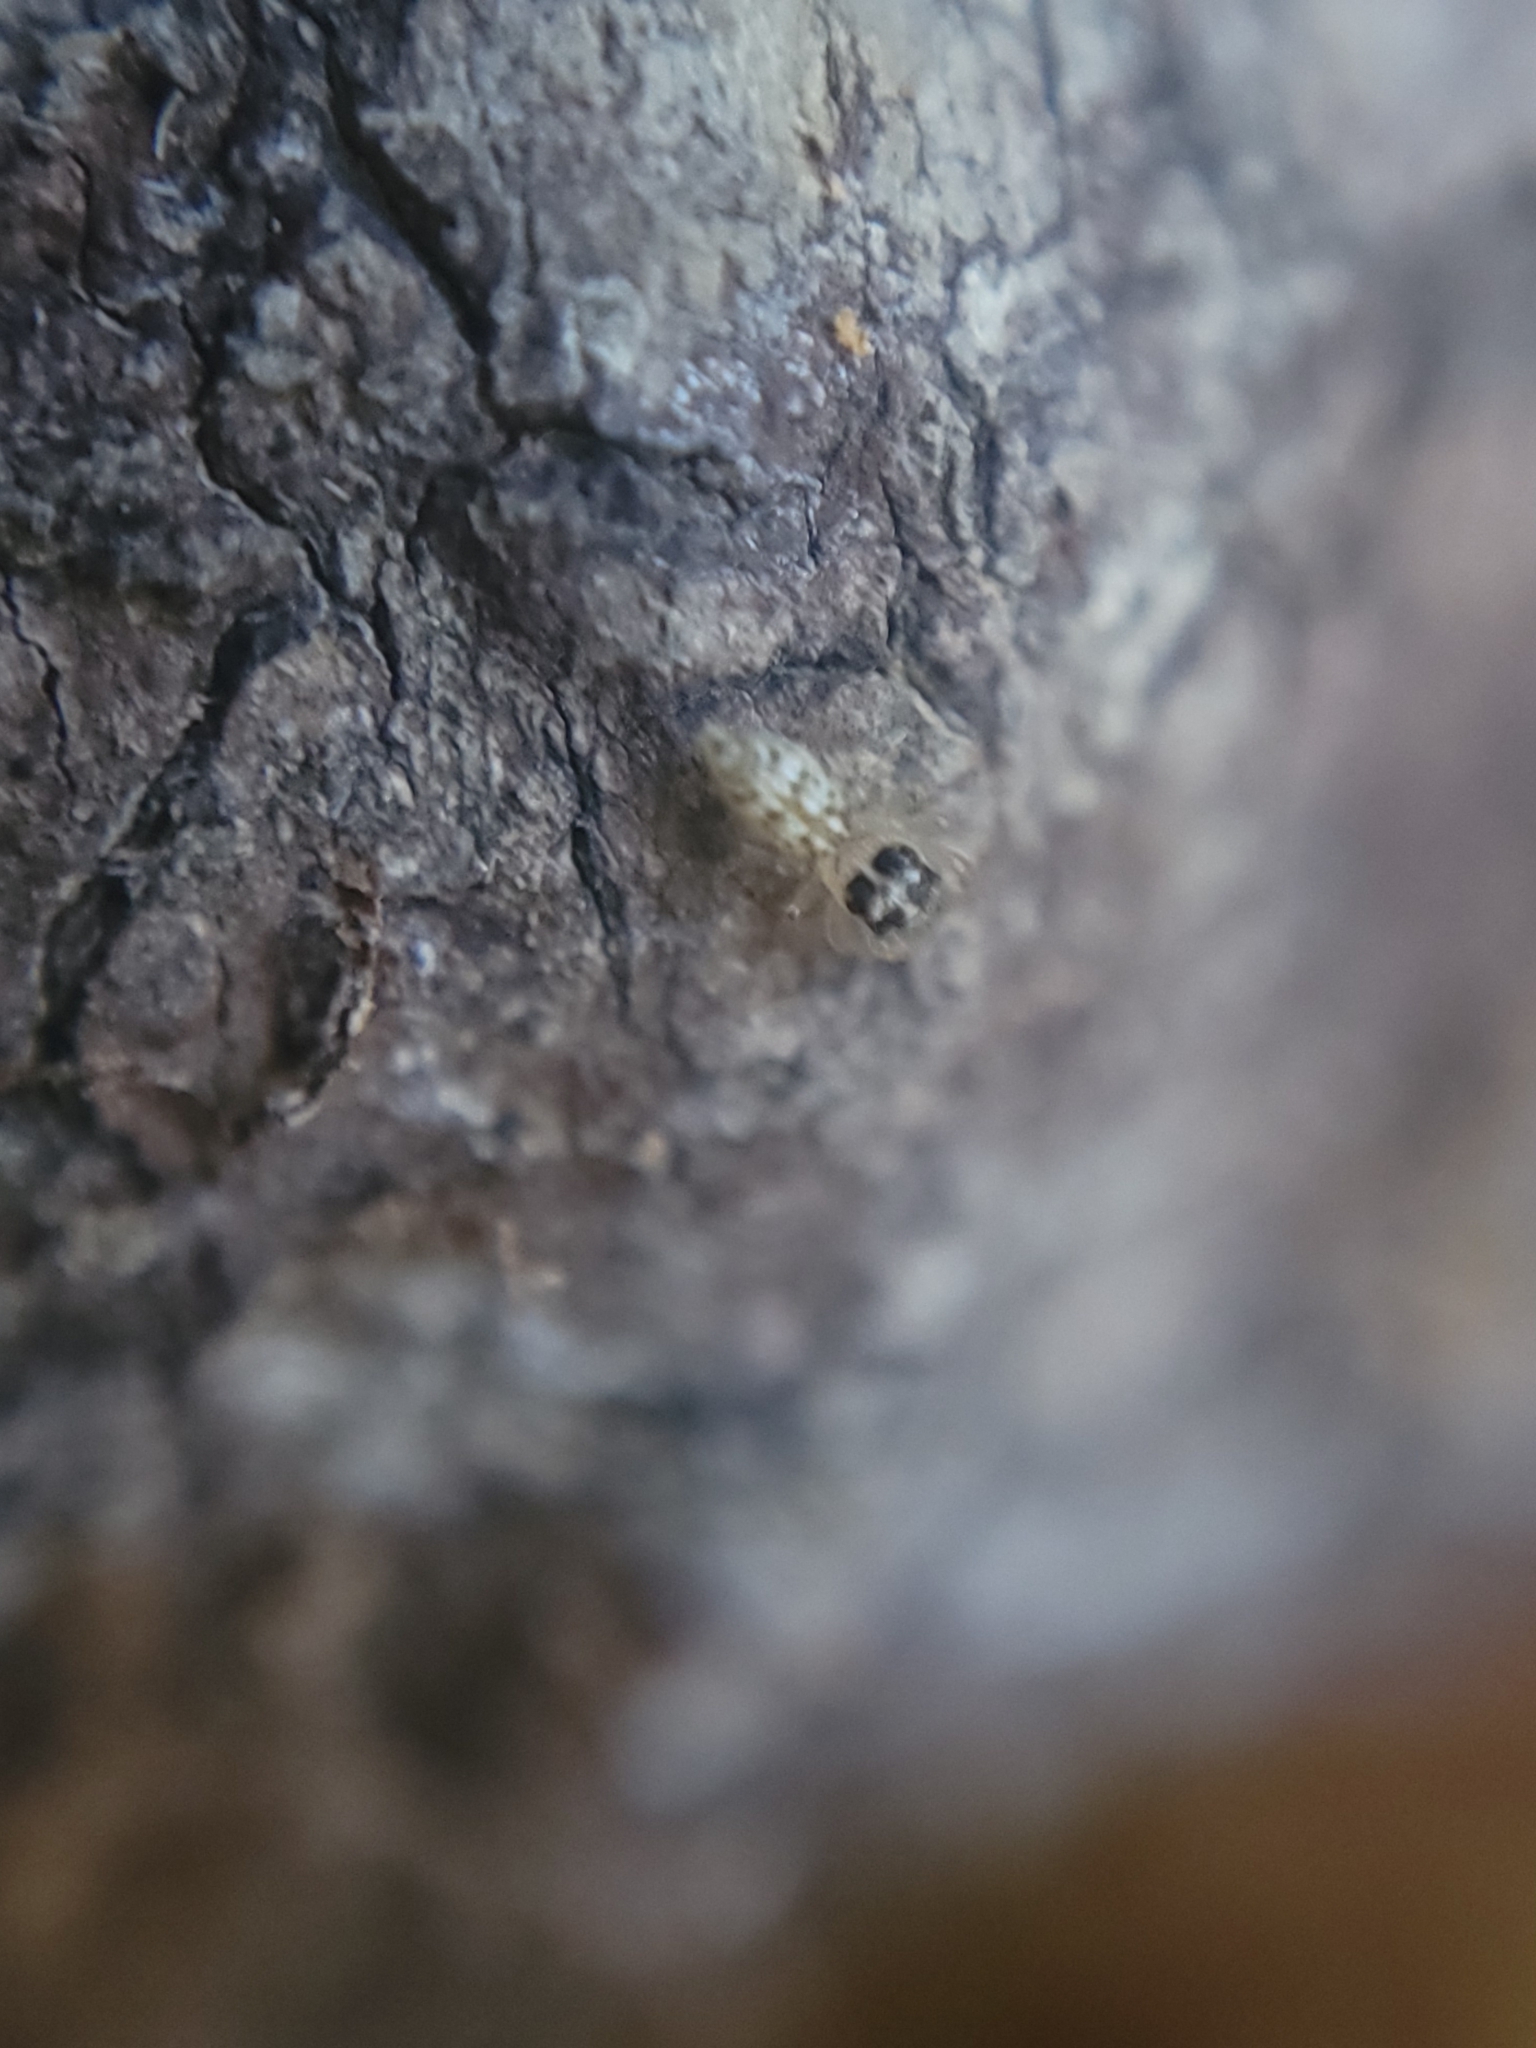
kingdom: Animalia
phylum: Arthropoda
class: Arachnida
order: Araneae
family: Salticidae
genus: Colonus
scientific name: Colonus hesperus
